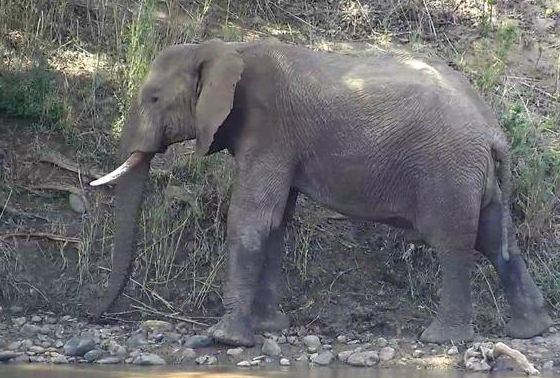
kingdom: Animalia
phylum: Chordata
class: Mammalia
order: Proboscidea
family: Elephantidae
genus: Loxodonta
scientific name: Loxodonta africana
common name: African elephant
